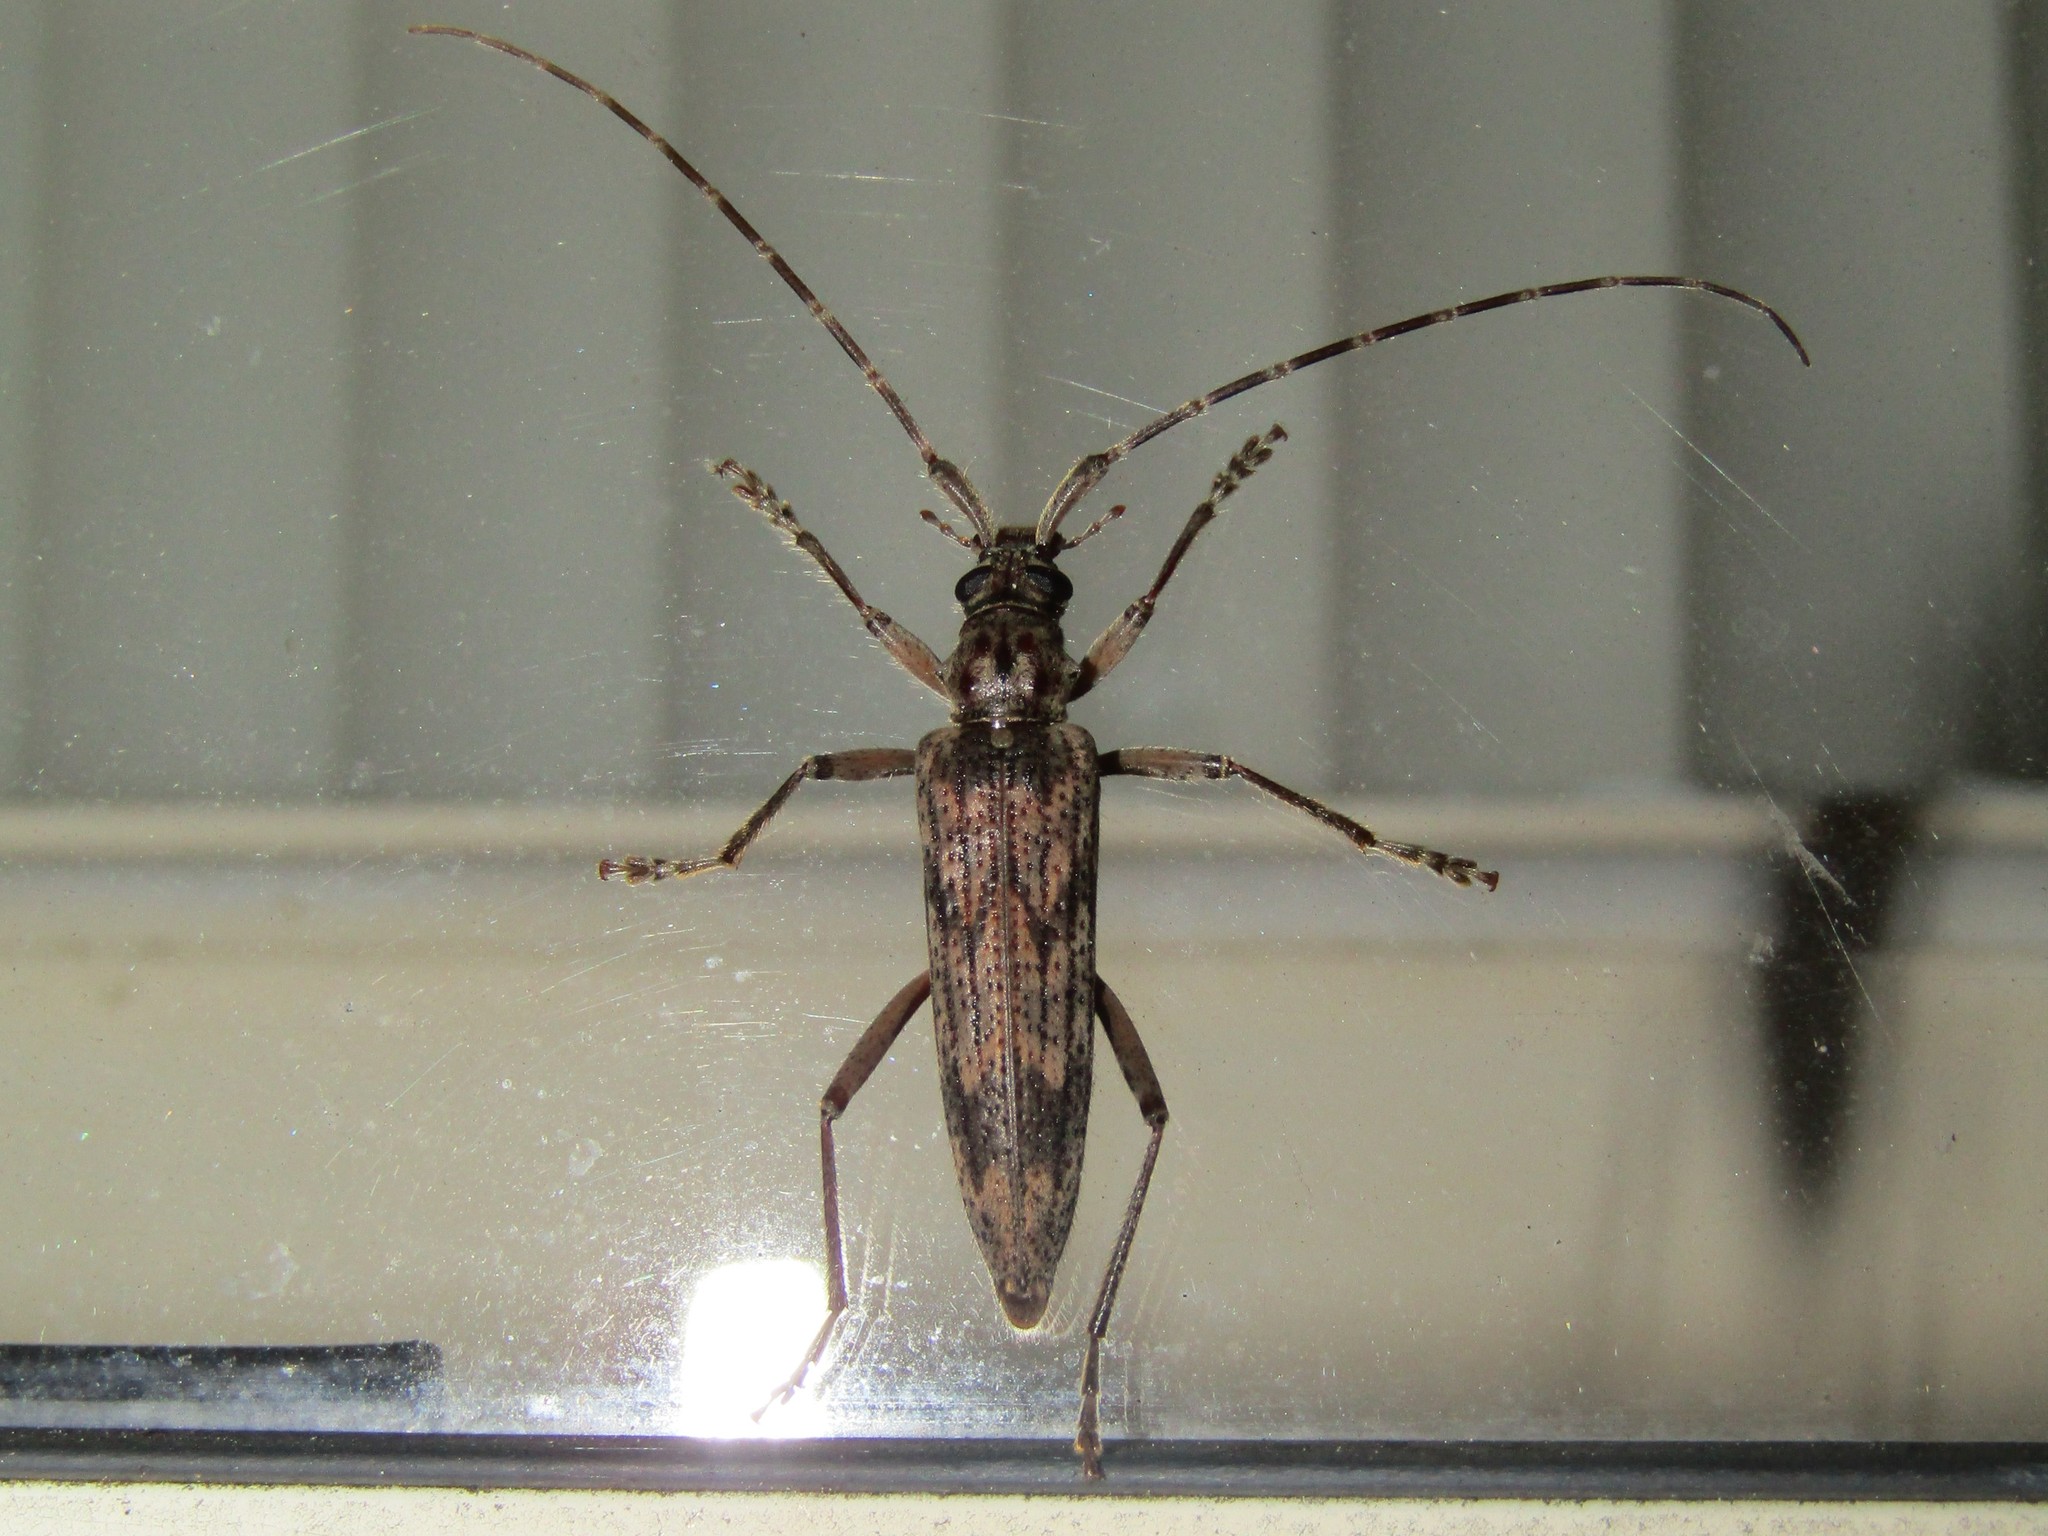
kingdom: Animalia
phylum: Arthropoda
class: Insecta
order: Coleoptera
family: Cerambycidae
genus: Elytrimitatrix
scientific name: Elytrimitatrix undata
